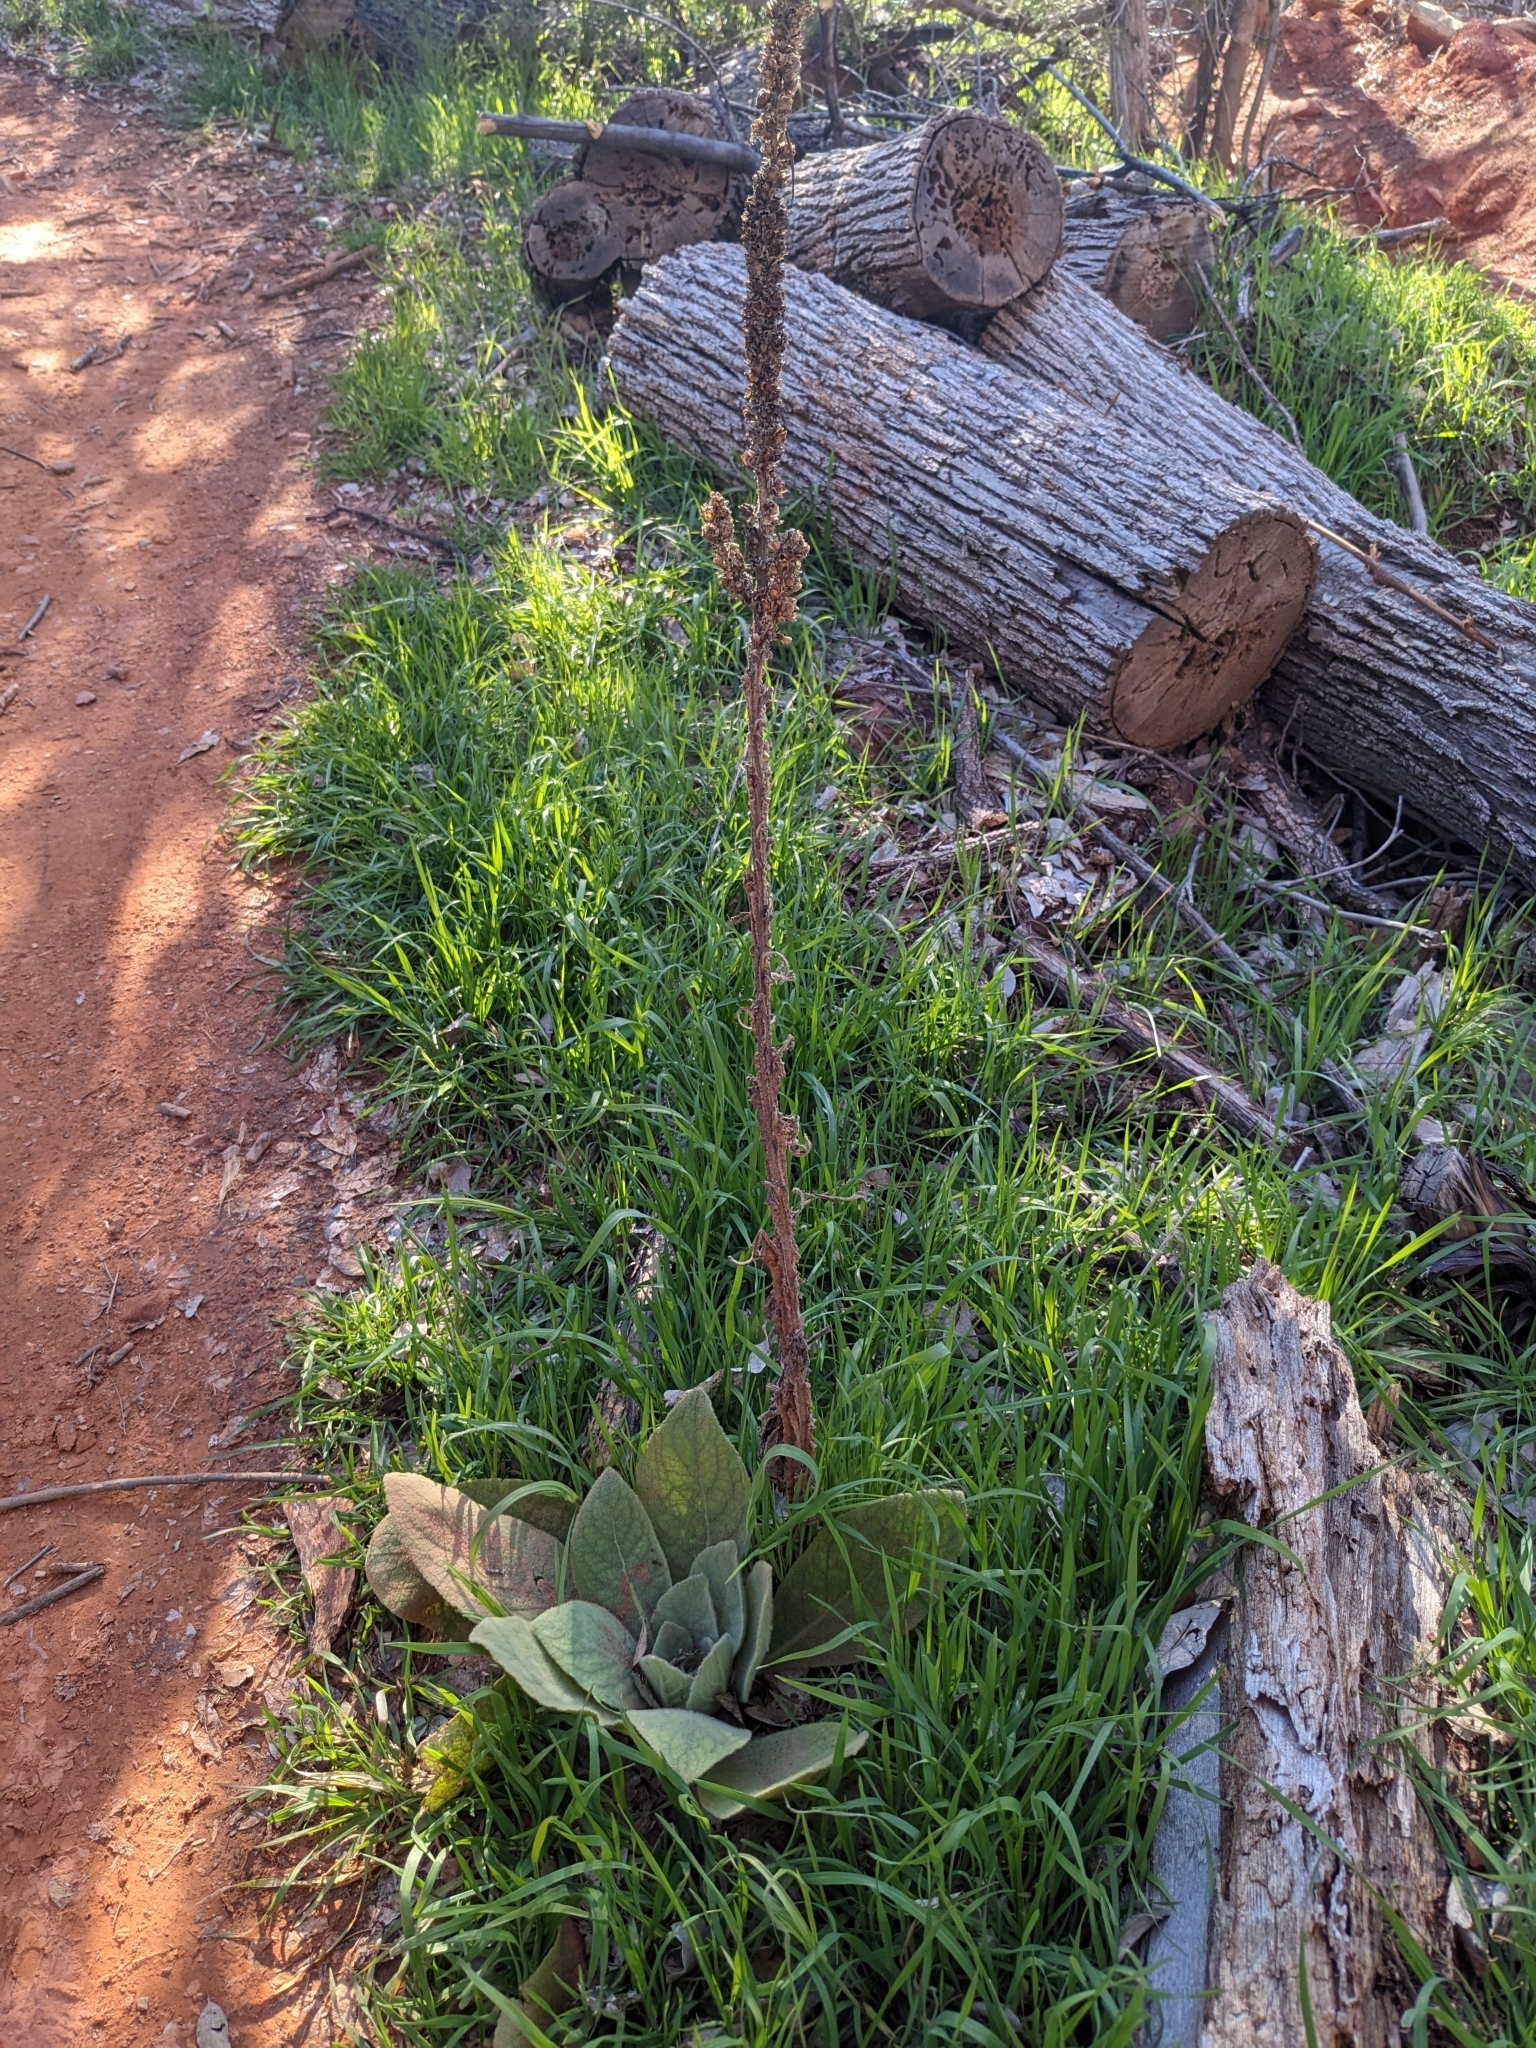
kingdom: Plantae
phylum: Tracheophyta
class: Magnoliopsida
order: Lamiales
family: Scrophulariaceae
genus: Verbascum
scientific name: Verbascum thapsus
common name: Common mullein
